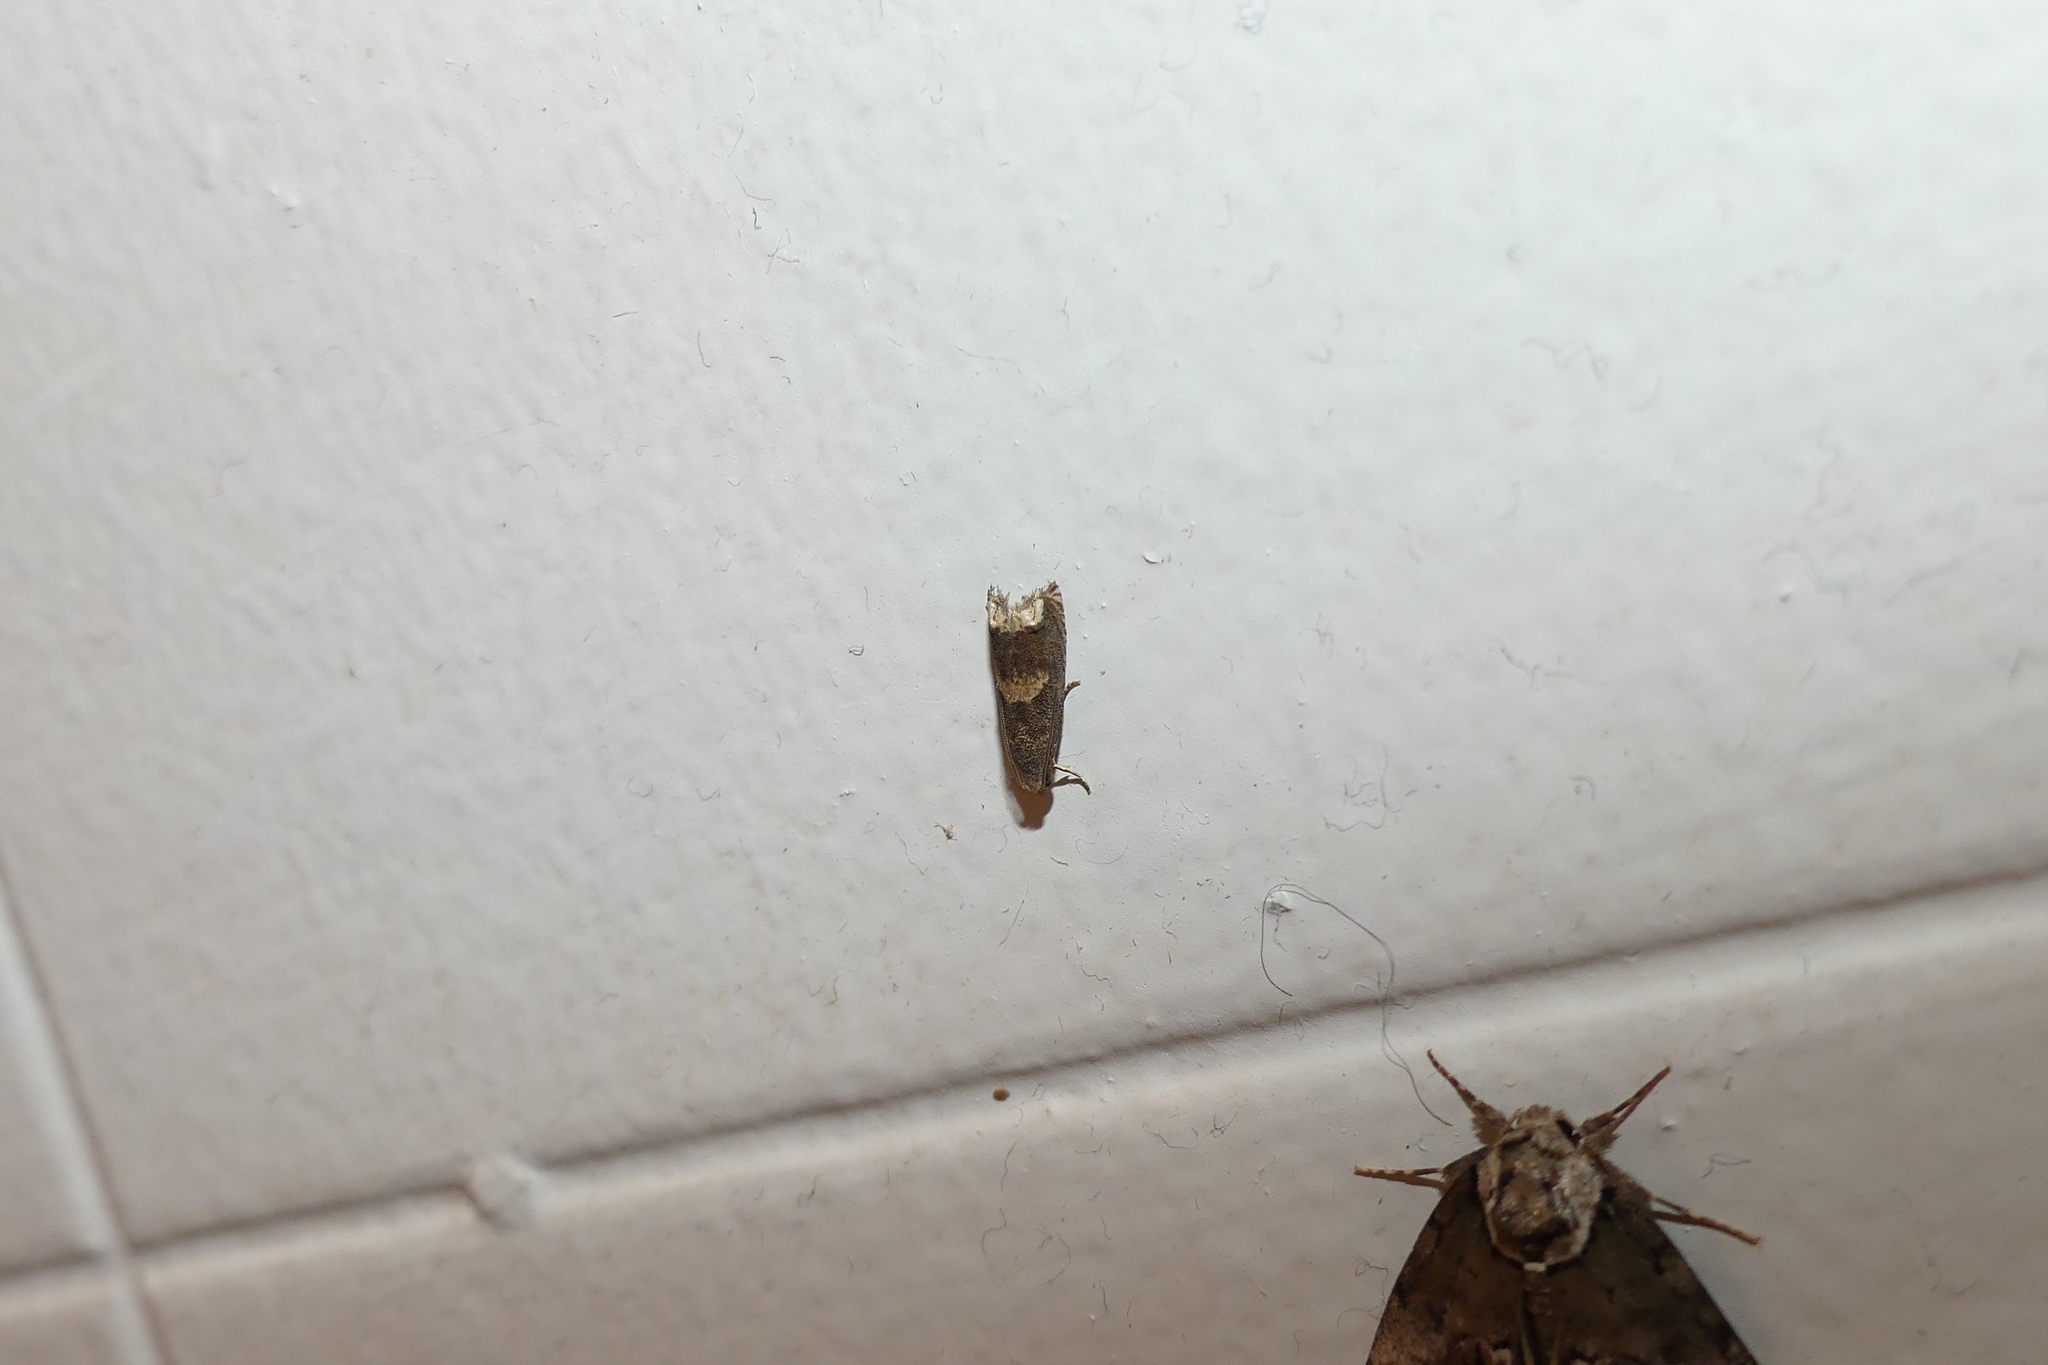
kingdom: Animalia
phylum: Arthropoda
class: Insecta
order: Lepidoptera
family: Tortricidae
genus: Epiblema
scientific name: Epiblema strenuana
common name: Ragweed borer moth
